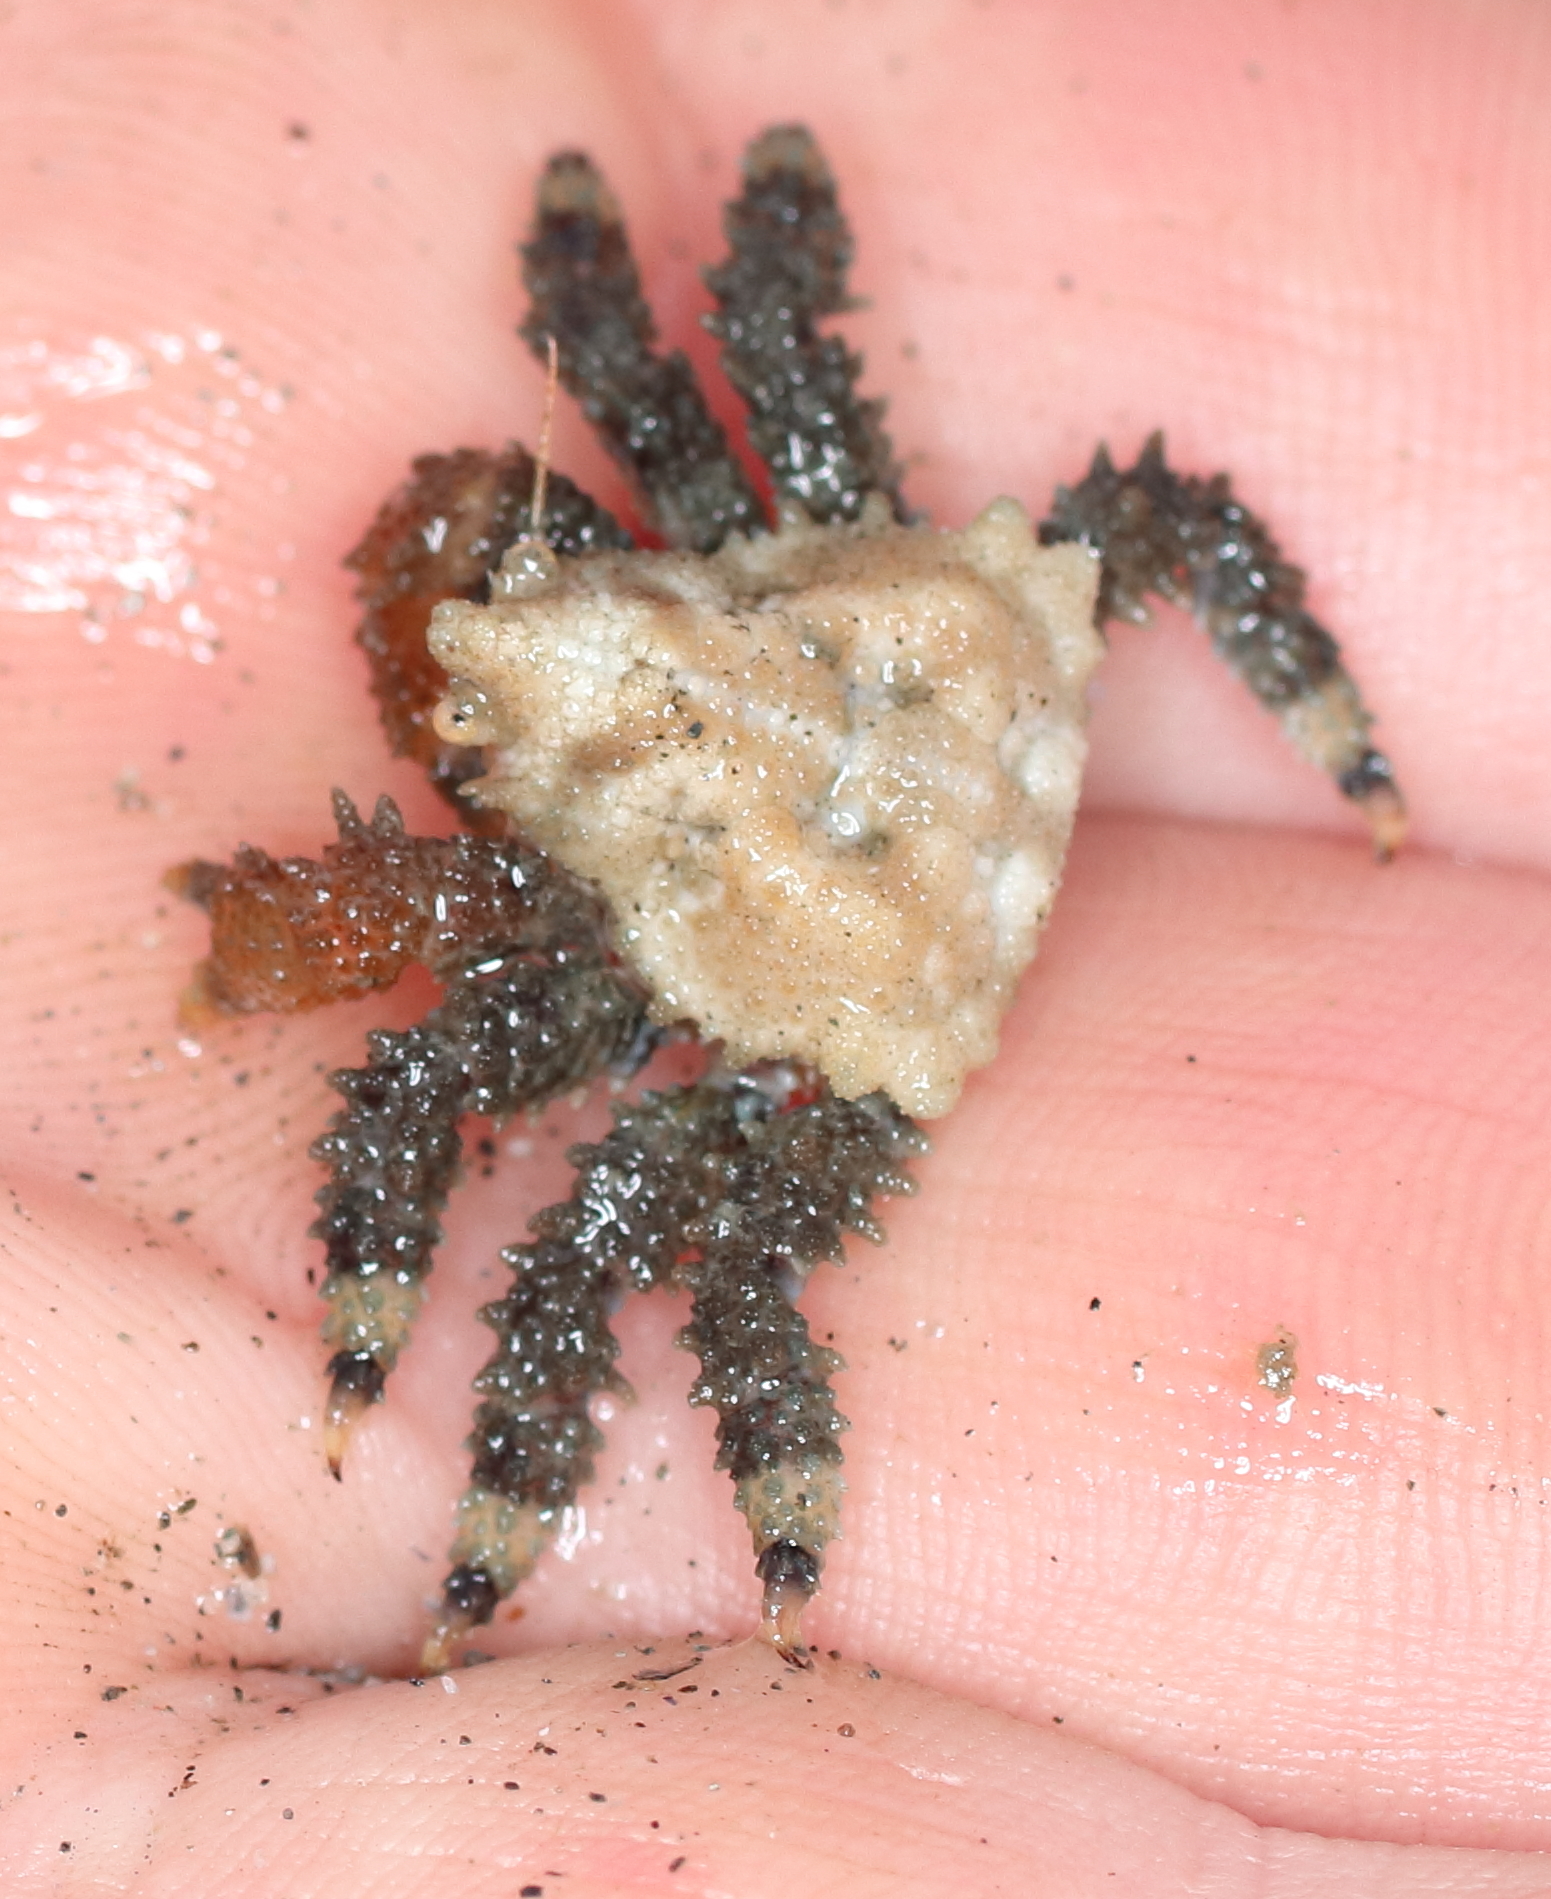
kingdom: Animalia
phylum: Arthropoda
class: Malacostraca
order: Decapoda
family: Lithodidae
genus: Phyllolithodes
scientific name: Phyllolithodes papillosus
